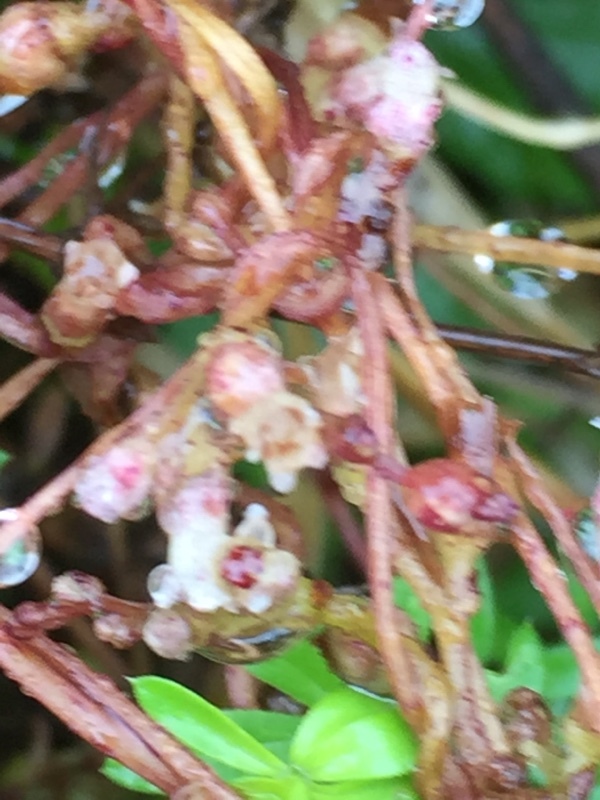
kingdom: Plantae
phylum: Tracheophyta
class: Magnoliopsida
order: Solanales
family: Convolvulaceae
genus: Cuscuta
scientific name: Cuscuta lupuliformis
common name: Hop dodder
